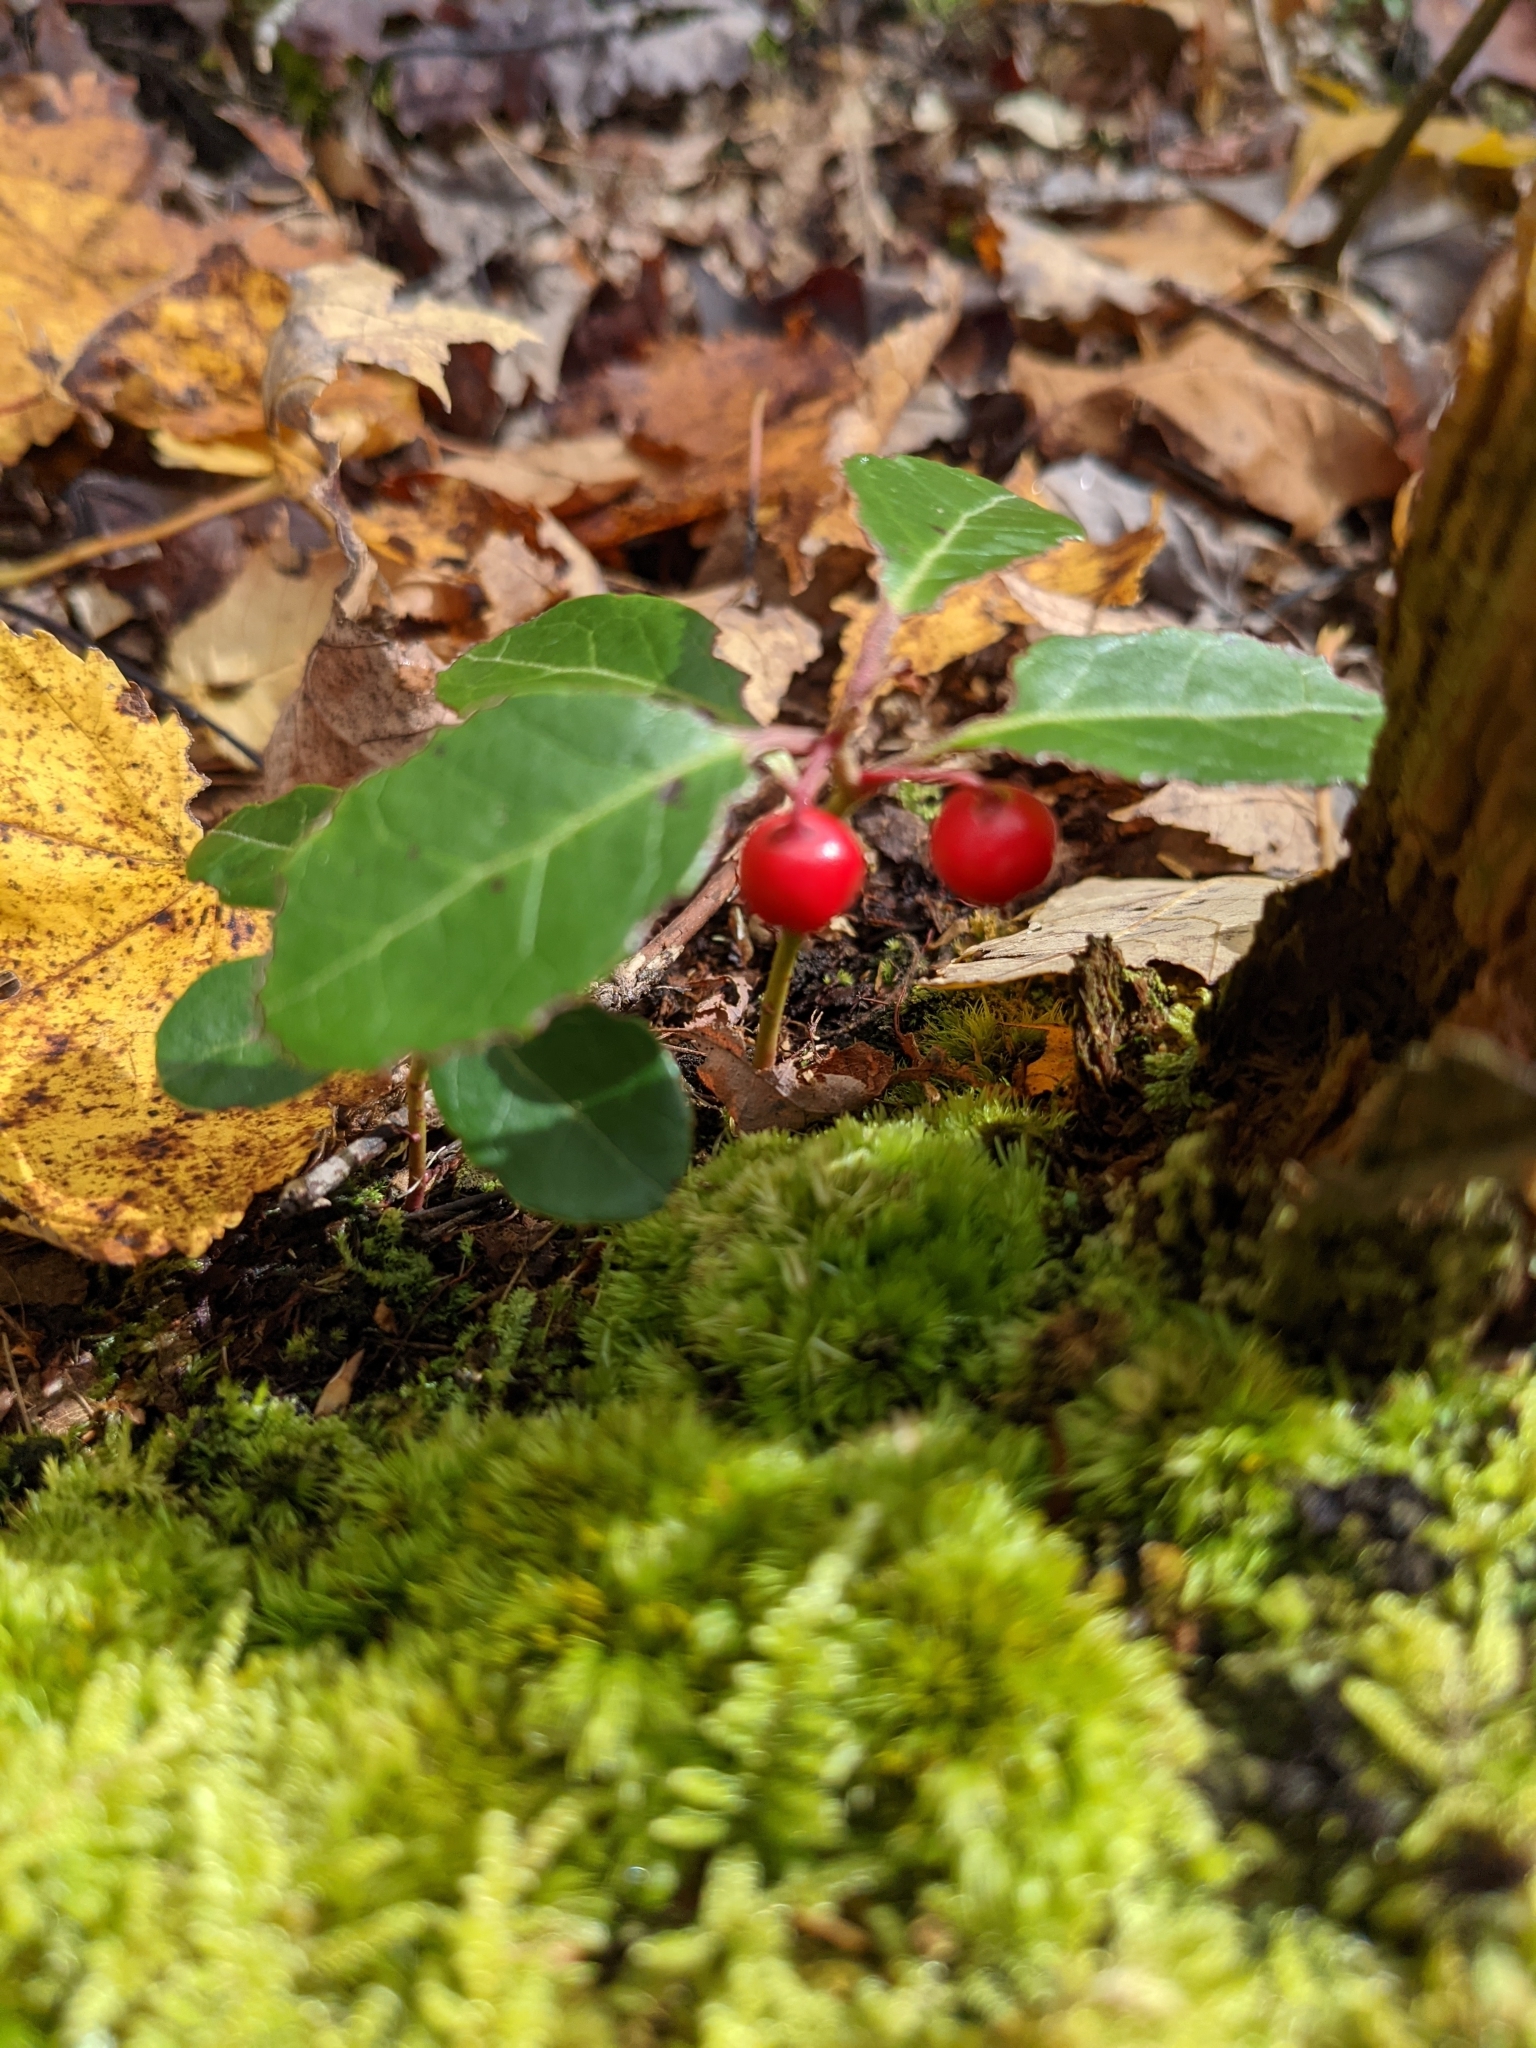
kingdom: Plantae
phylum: Tracheophyta
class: Magnoliopsida
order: Ericales
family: Ericaceae
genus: Gaultheria
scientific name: Gaultheria procumbens
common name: Checkerberry
